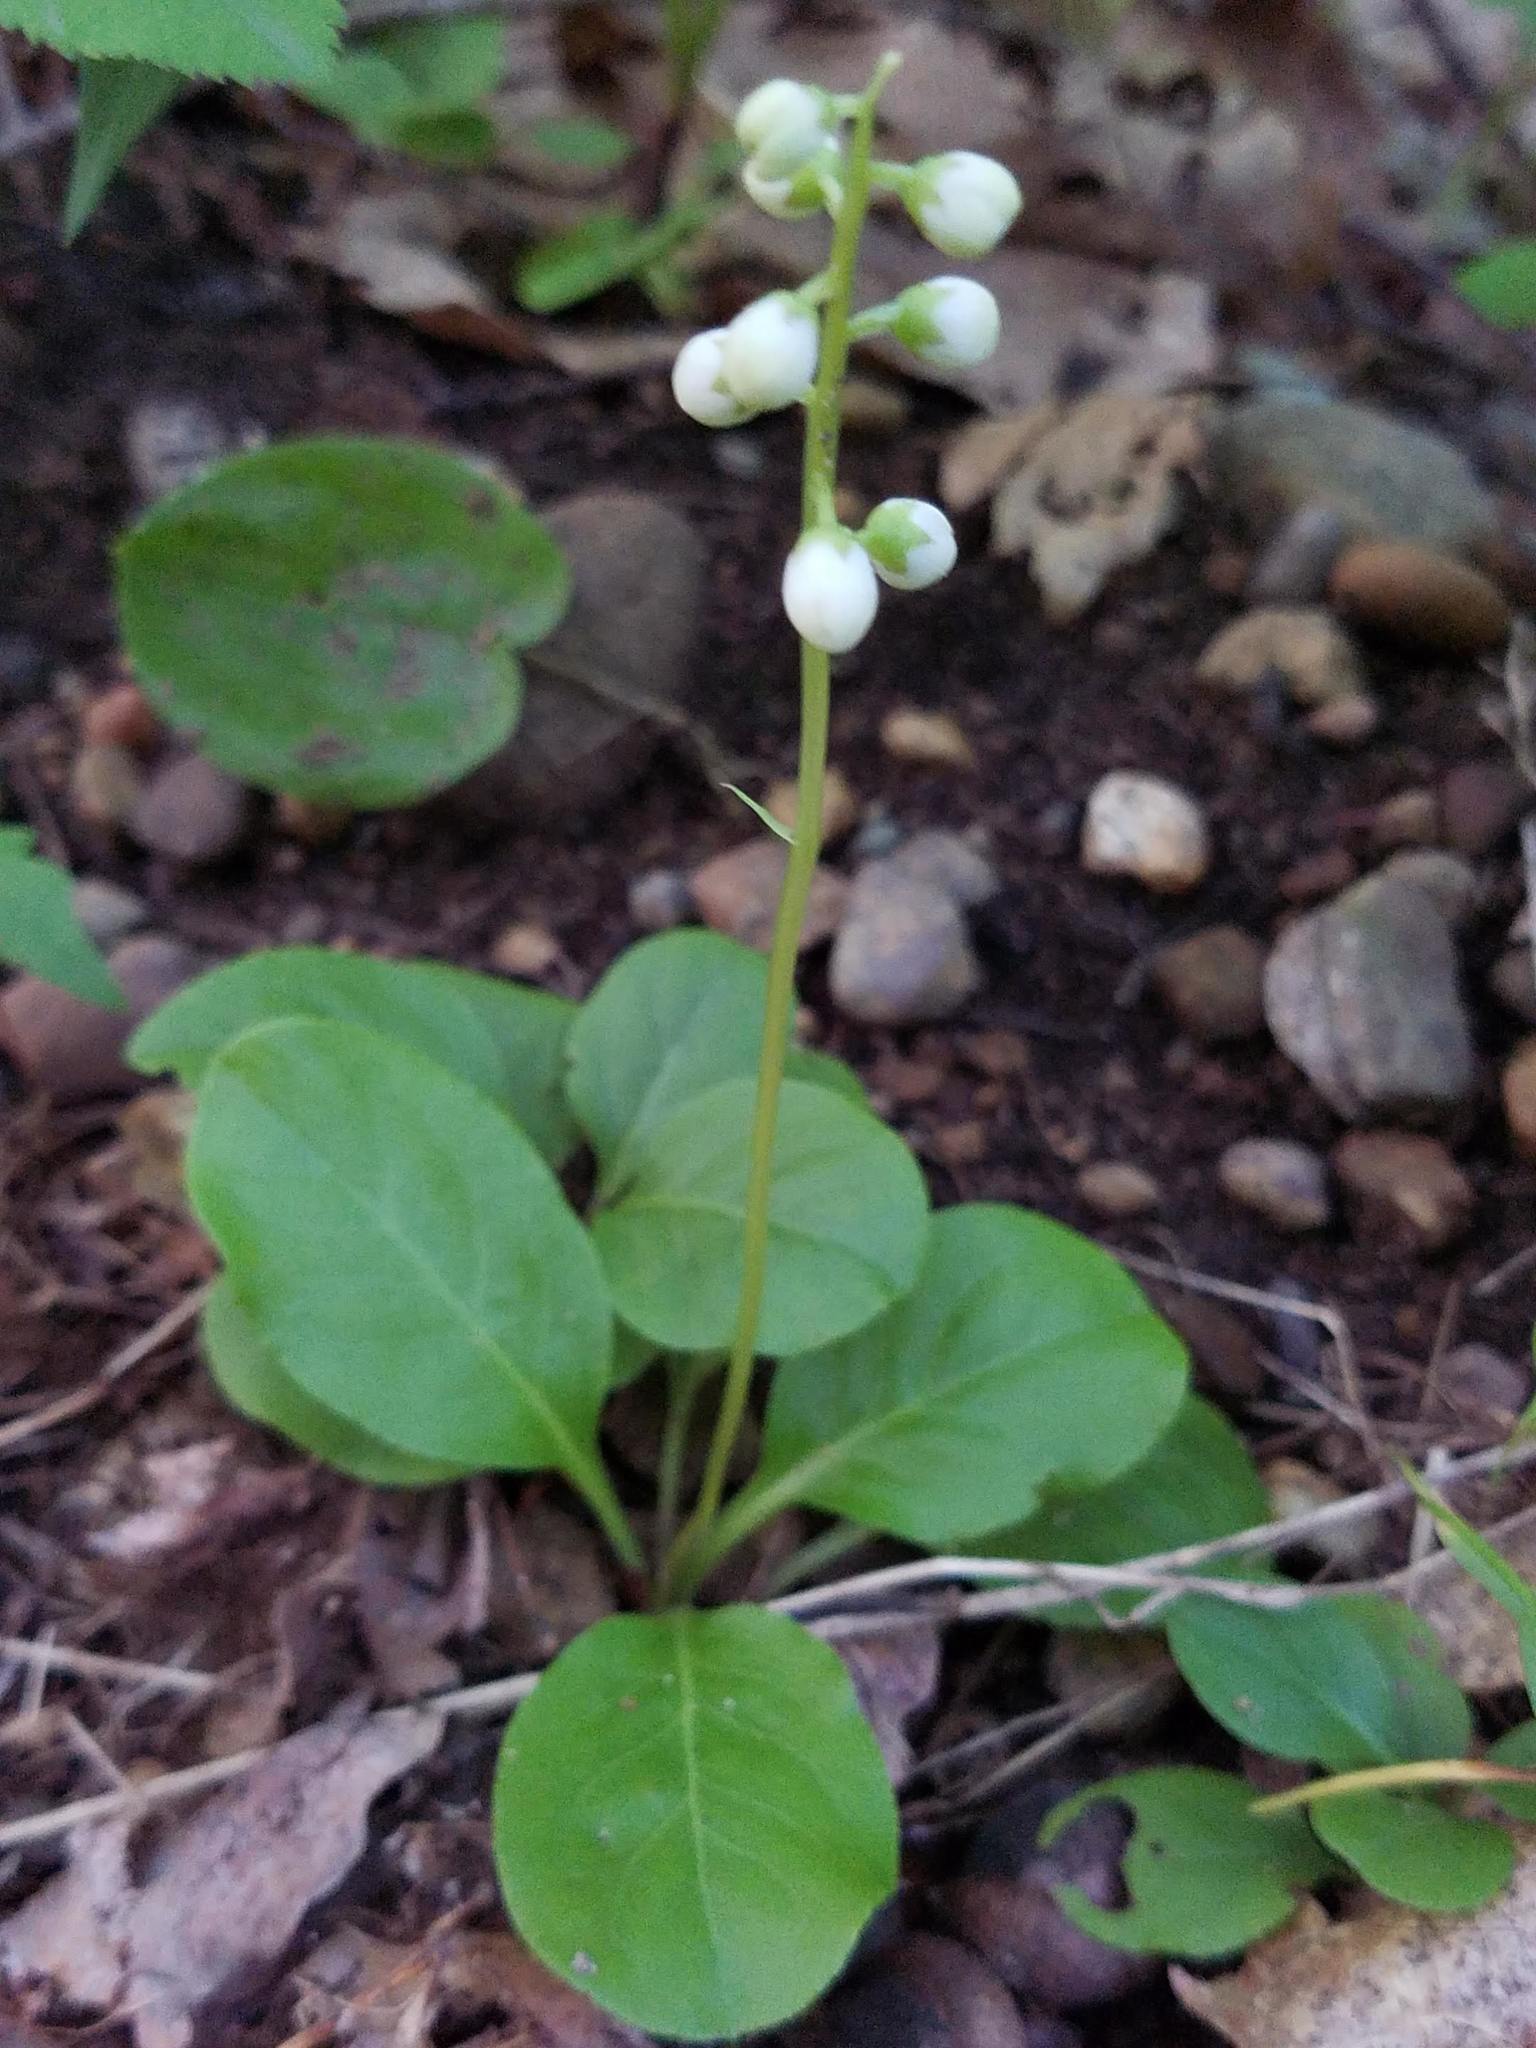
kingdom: Plantae
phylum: Tracheophyta
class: Magnoliopsida
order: Ericales
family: Ericaceae
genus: Pyrola
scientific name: Pyrola elliptica
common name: Shinleaf
